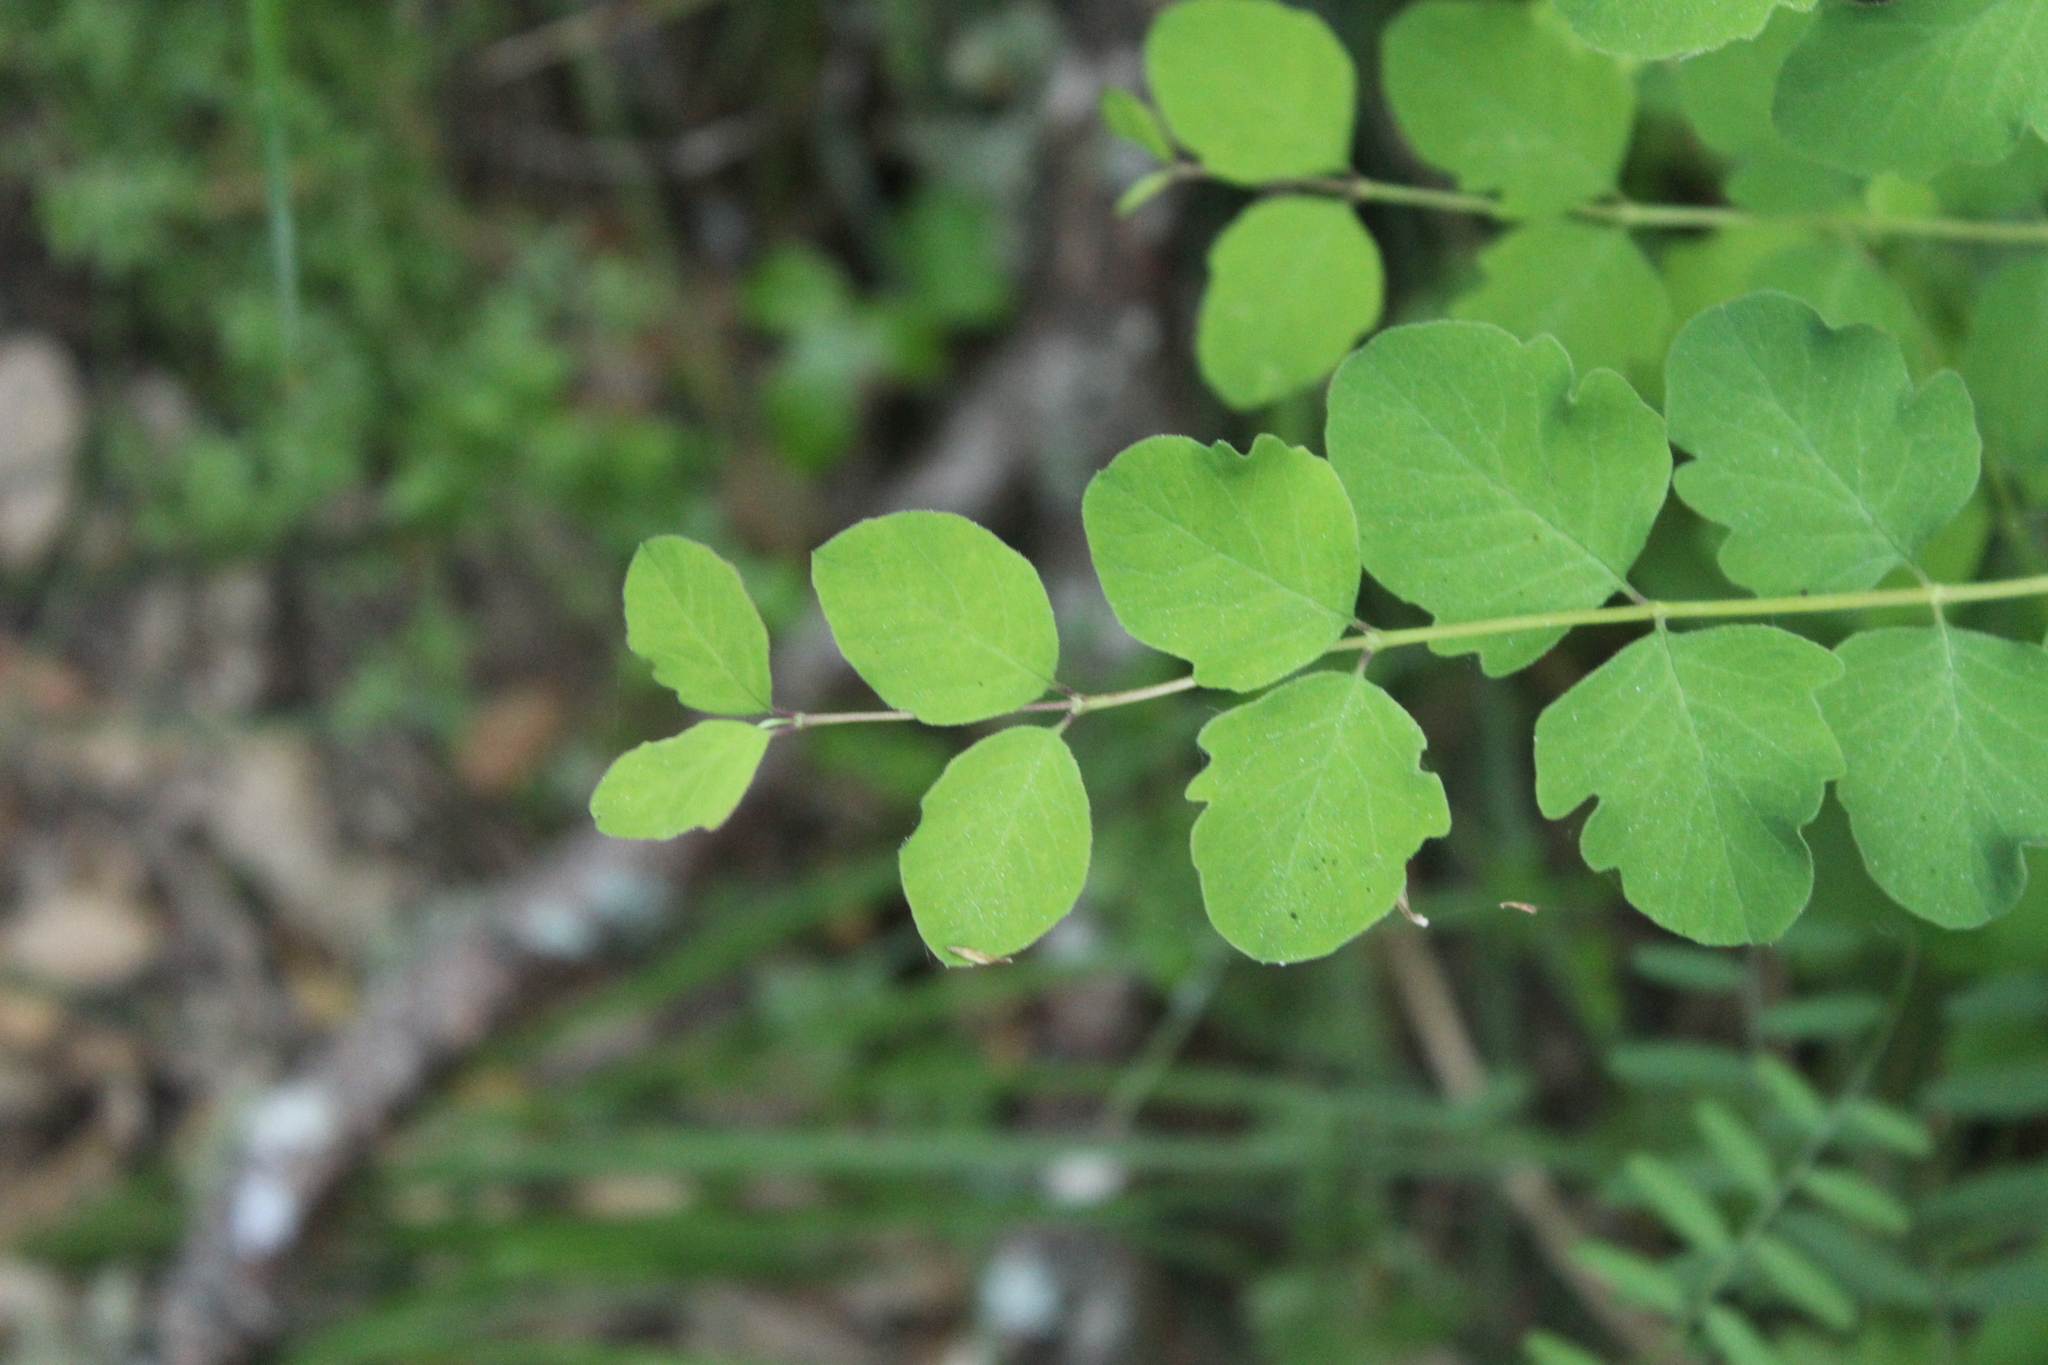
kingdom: Plantae
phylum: Tracheophyta
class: Magnoliopsida
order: Dipsacales
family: Caprifoliaceae
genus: Symphoricarpos
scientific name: Symphoricarpos albus
